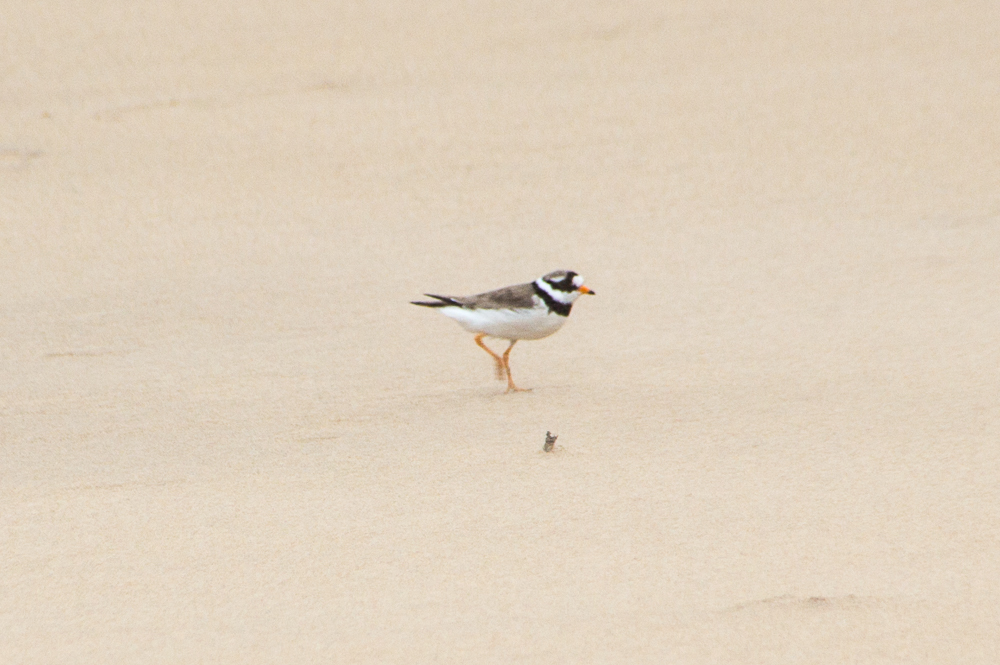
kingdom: Animalia
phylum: Chordata
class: Aves
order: Charadriiformes
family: Charadriidae
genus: Charadrius
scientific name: Charadrius hiaticula
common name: Common ringed plover
